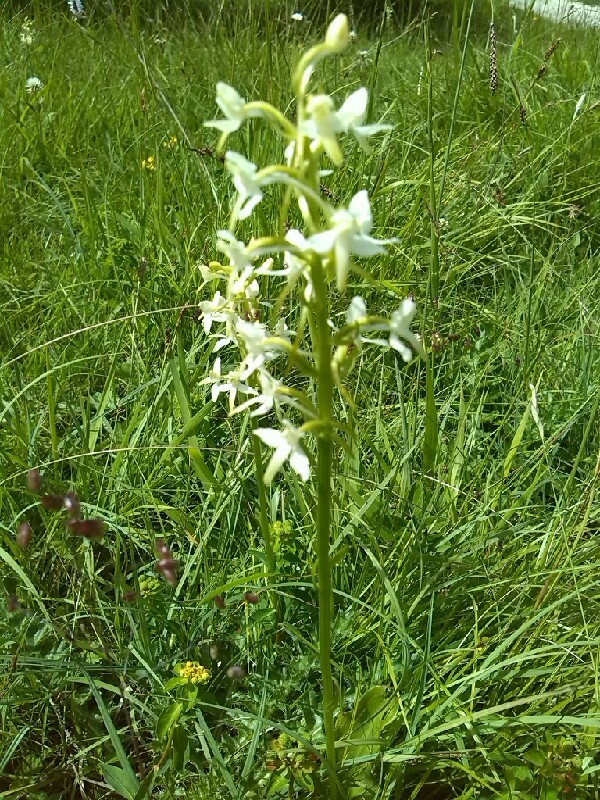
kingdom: Plantae
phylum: Tracheophyta
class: Liliopsida
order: Asparagales
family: Orchidaceae
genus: Platanthera
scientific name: Platanthera bifolia
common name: Lesser butterfly-orchid
